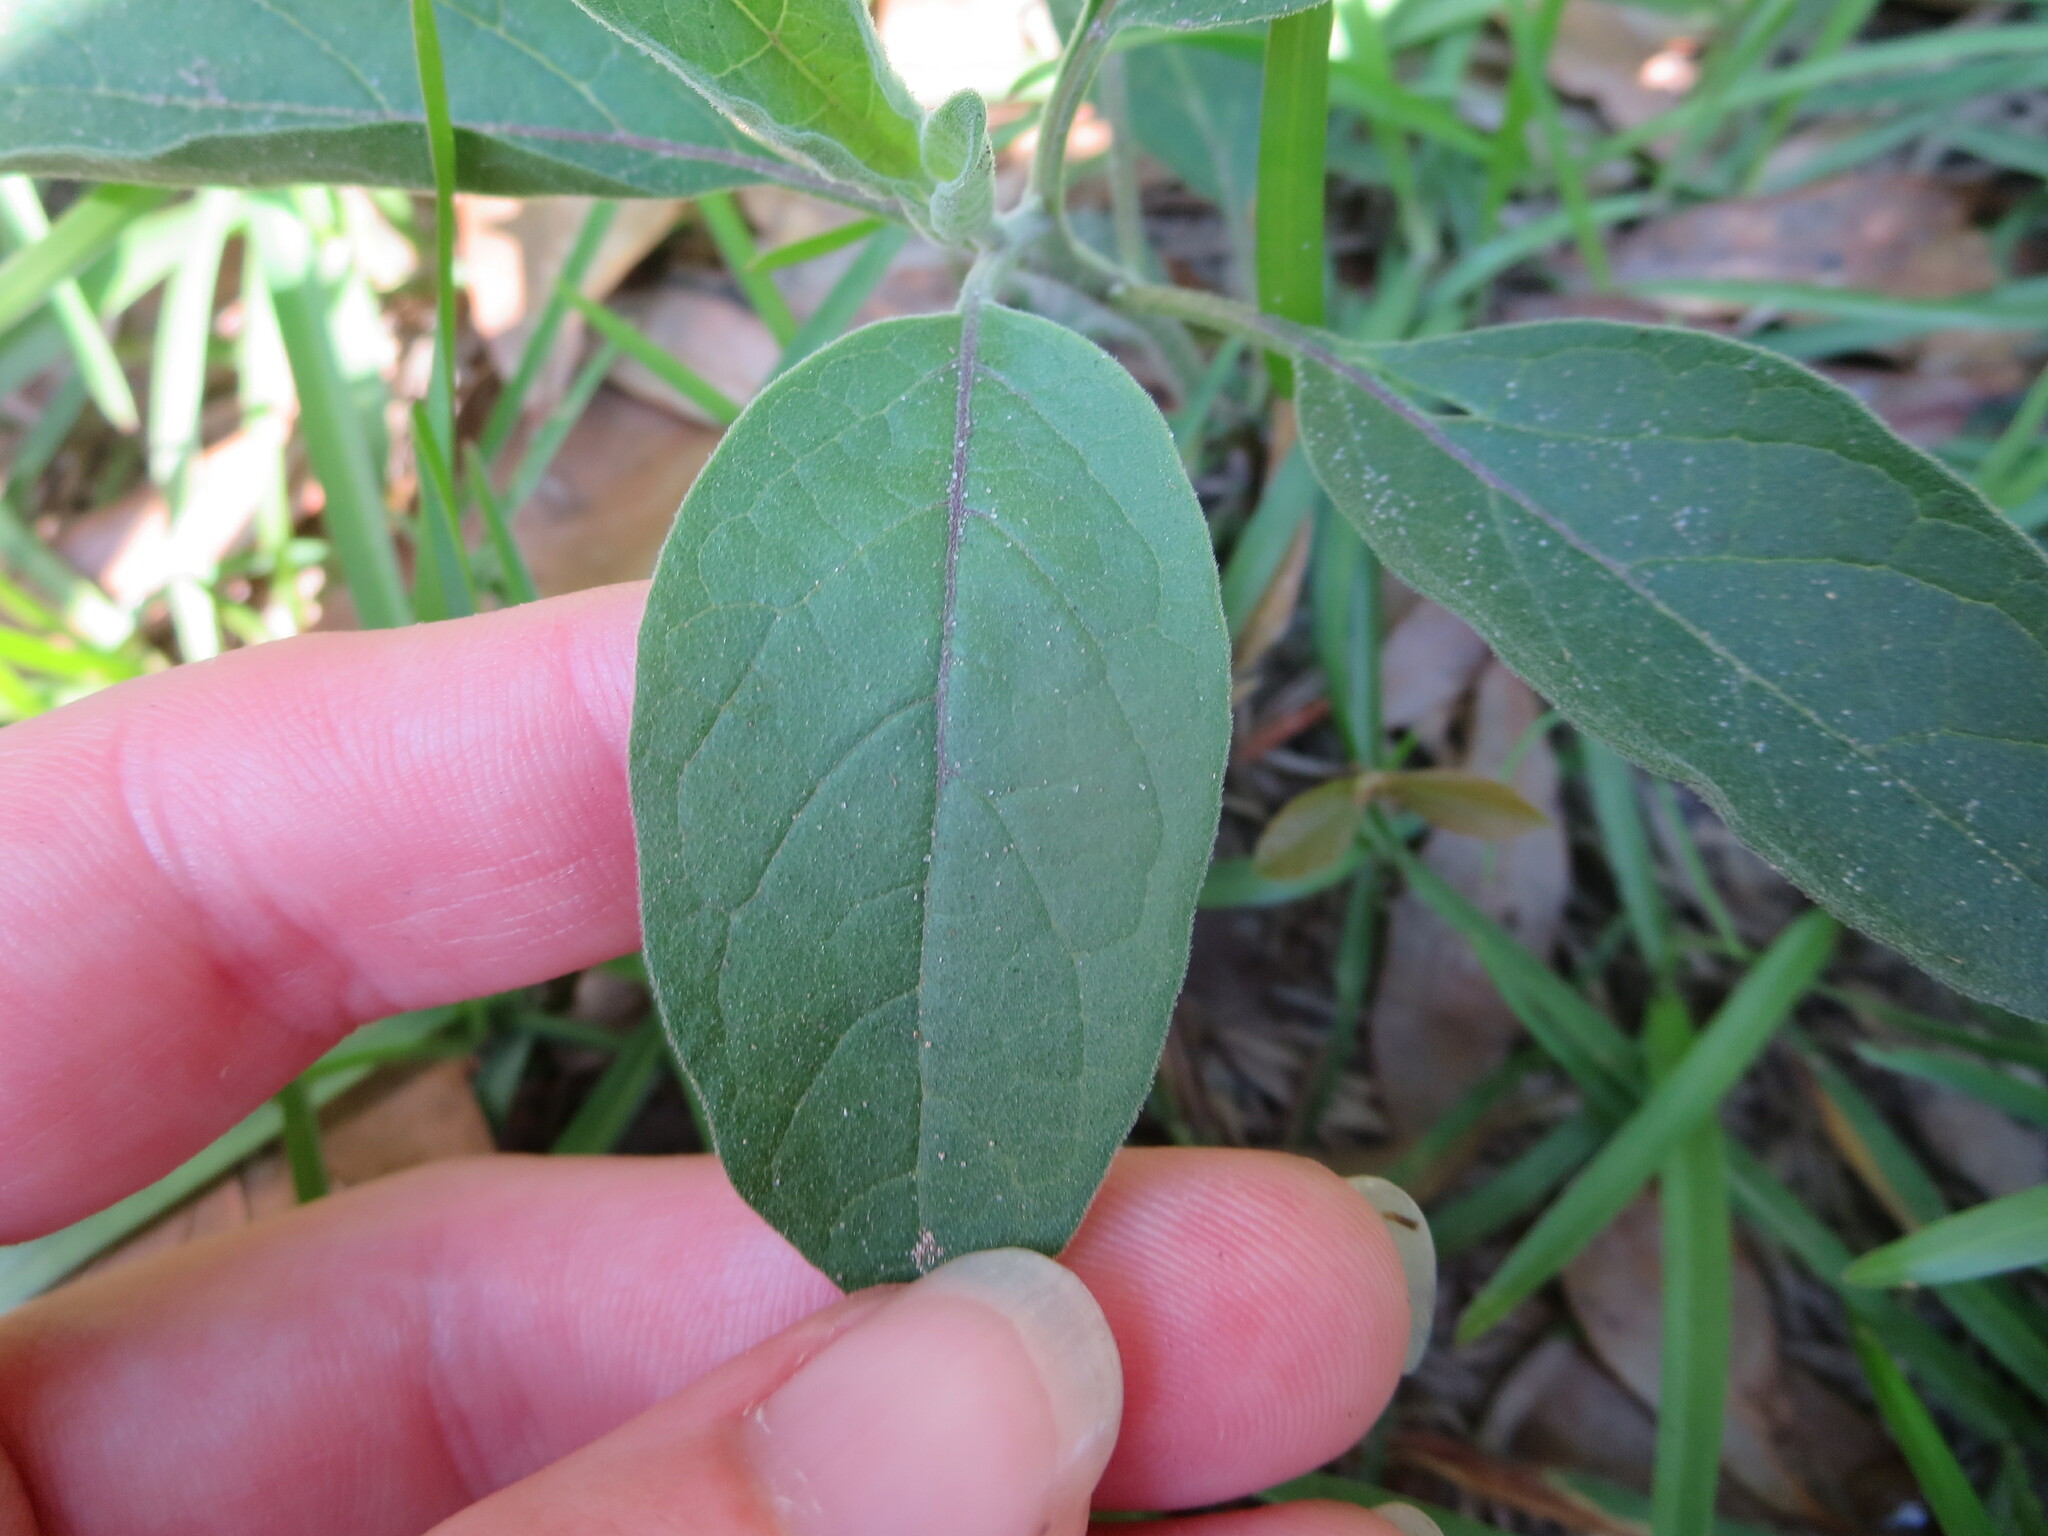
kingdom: Plantae
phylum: Tracheophyta
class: Magnoliopsida
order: Solanales
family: Solanaceae
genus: Physalis
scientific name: Physalis walteri
